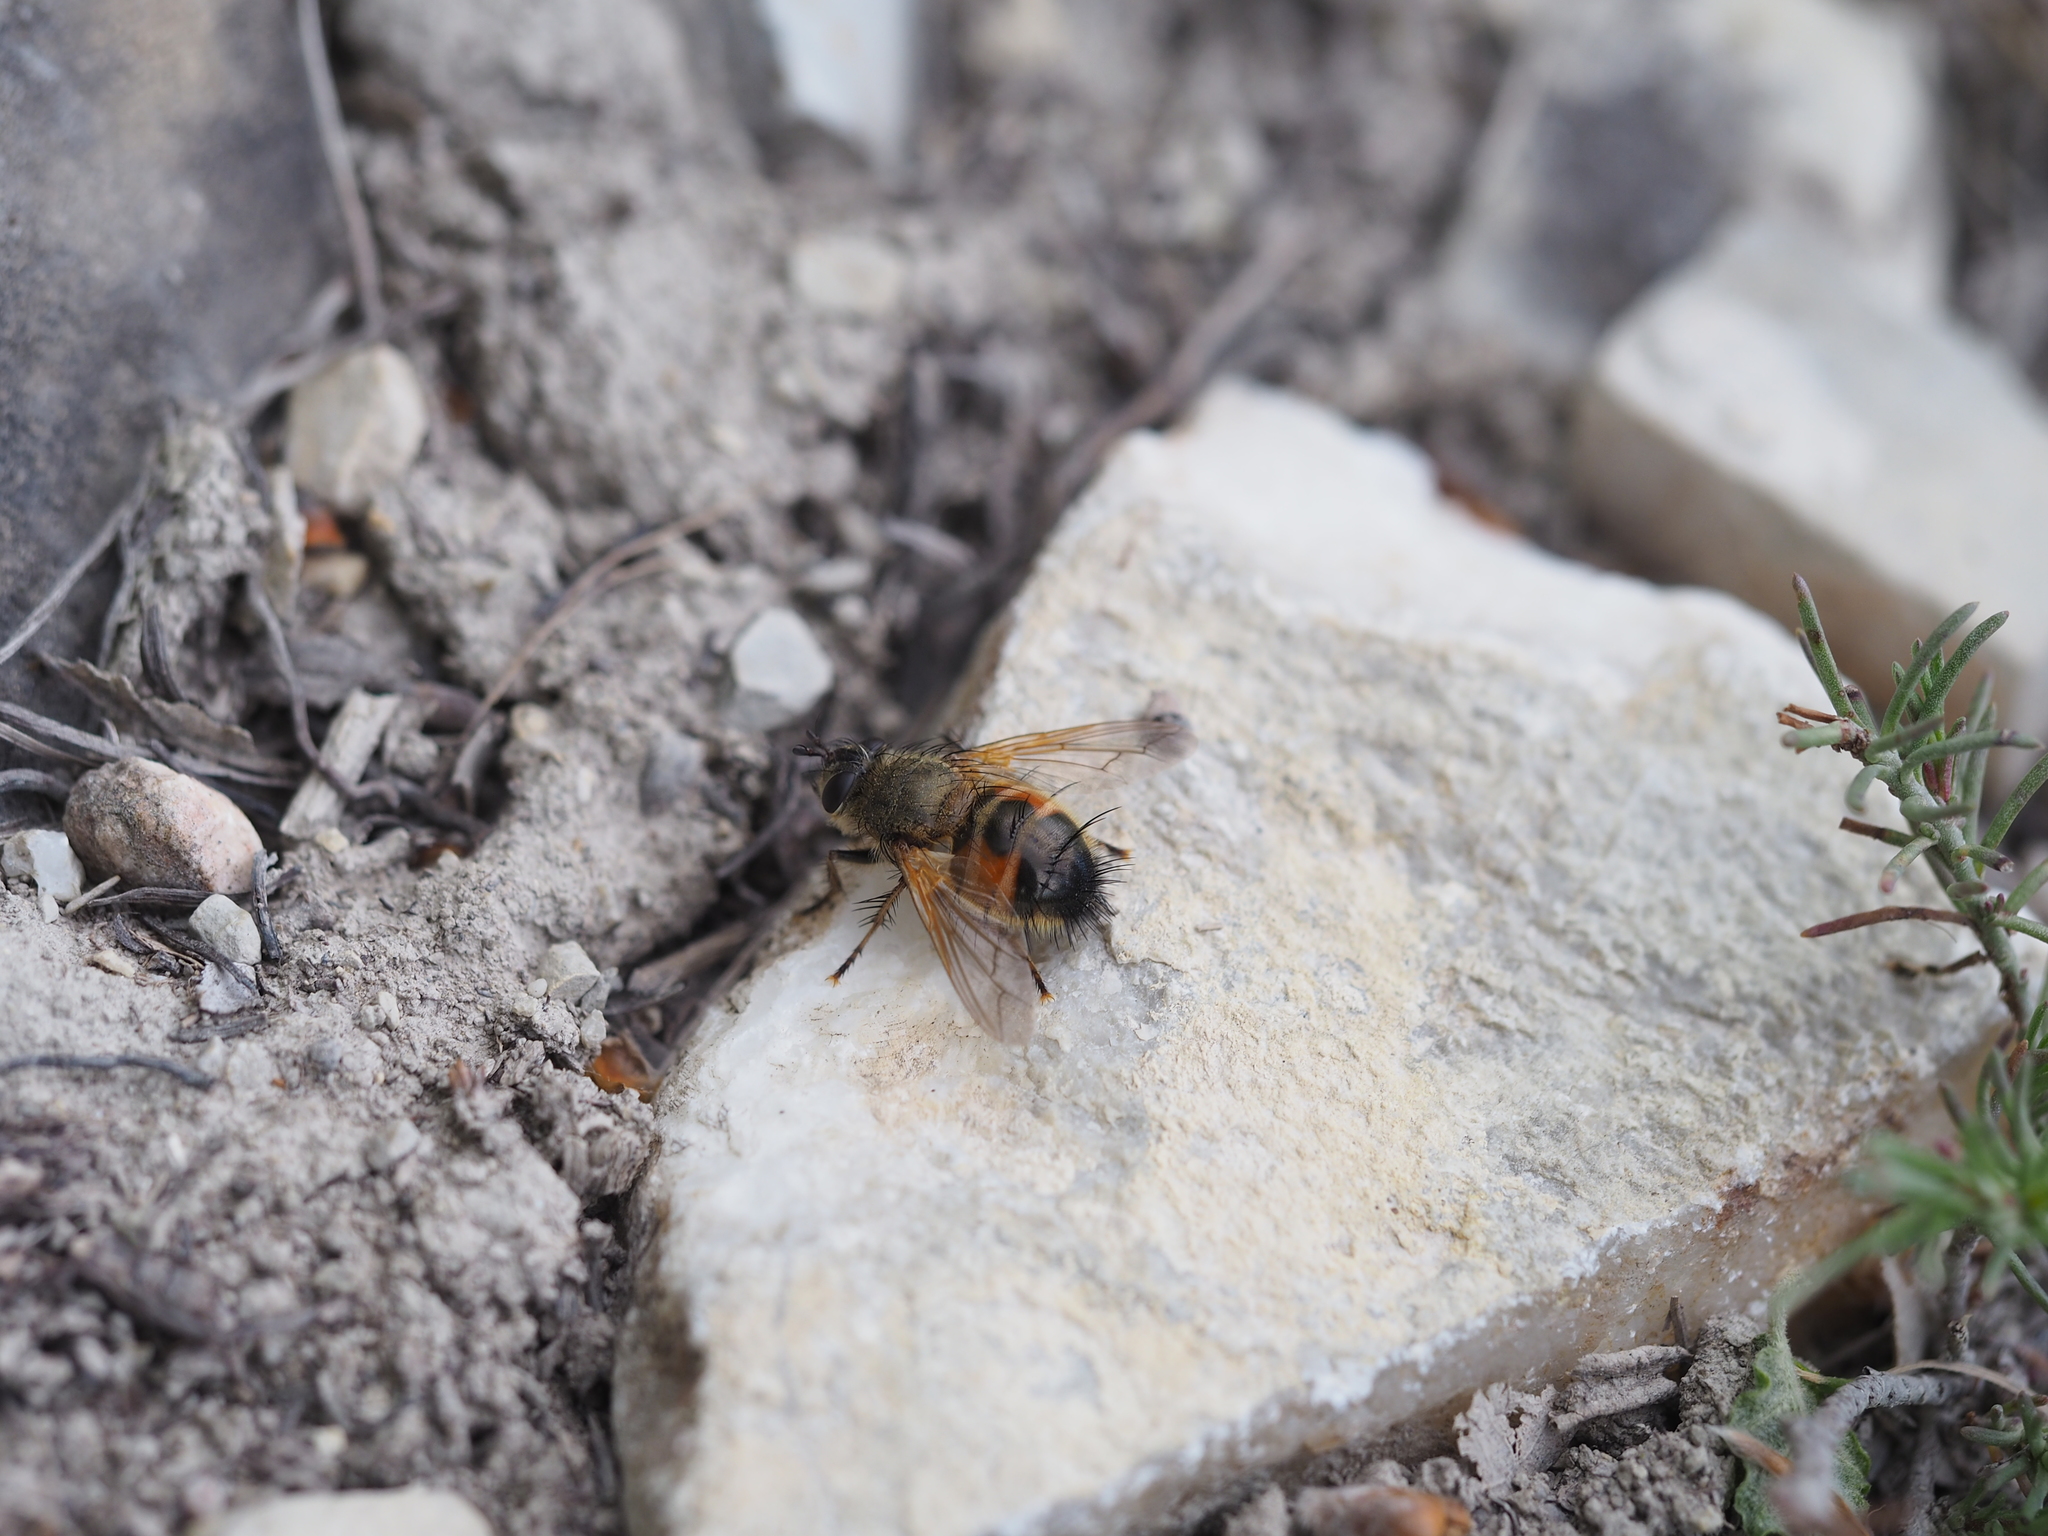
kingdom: Animalia
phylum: Arthropoda
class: Insecta
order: Diptera
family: Tachinidae
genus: Tachina
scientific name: Tachina lurida
